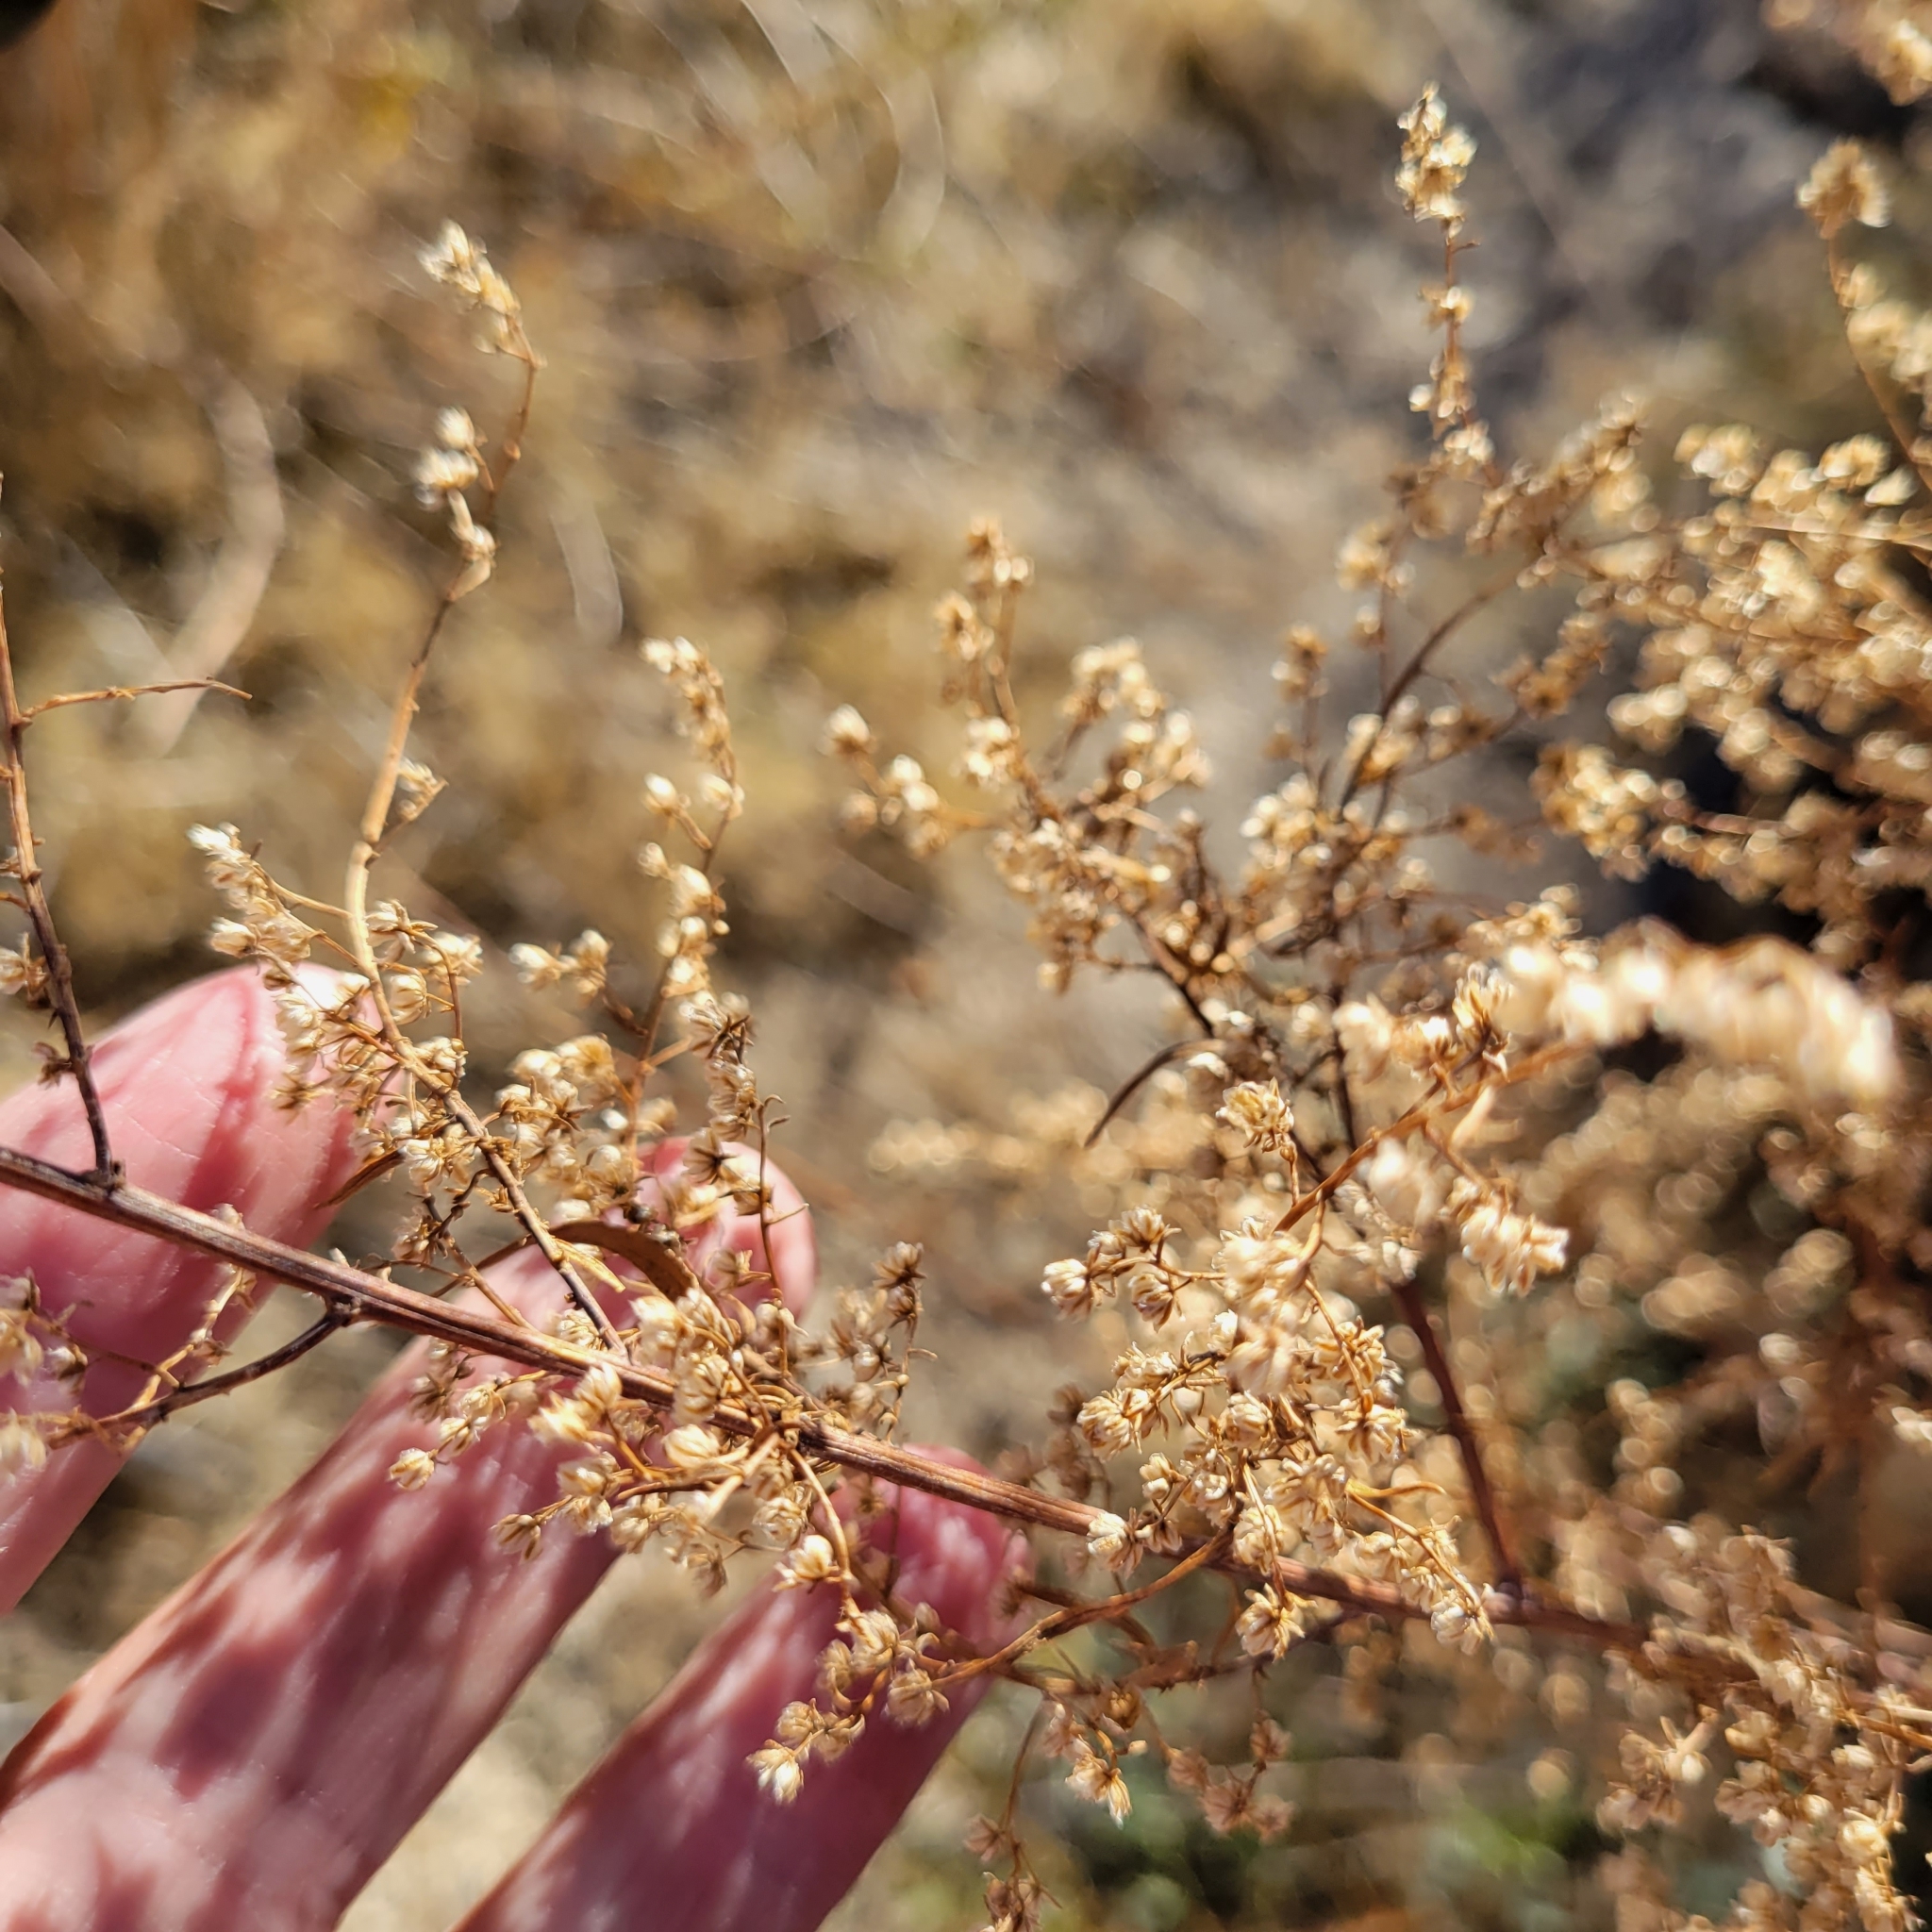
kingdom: Plantae
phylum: Tracheophyta
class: Magnoliopsida
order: Asterales
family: Asteraceae
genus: Artemisia
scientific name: Artemisia dracunculus
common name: Tarragon
